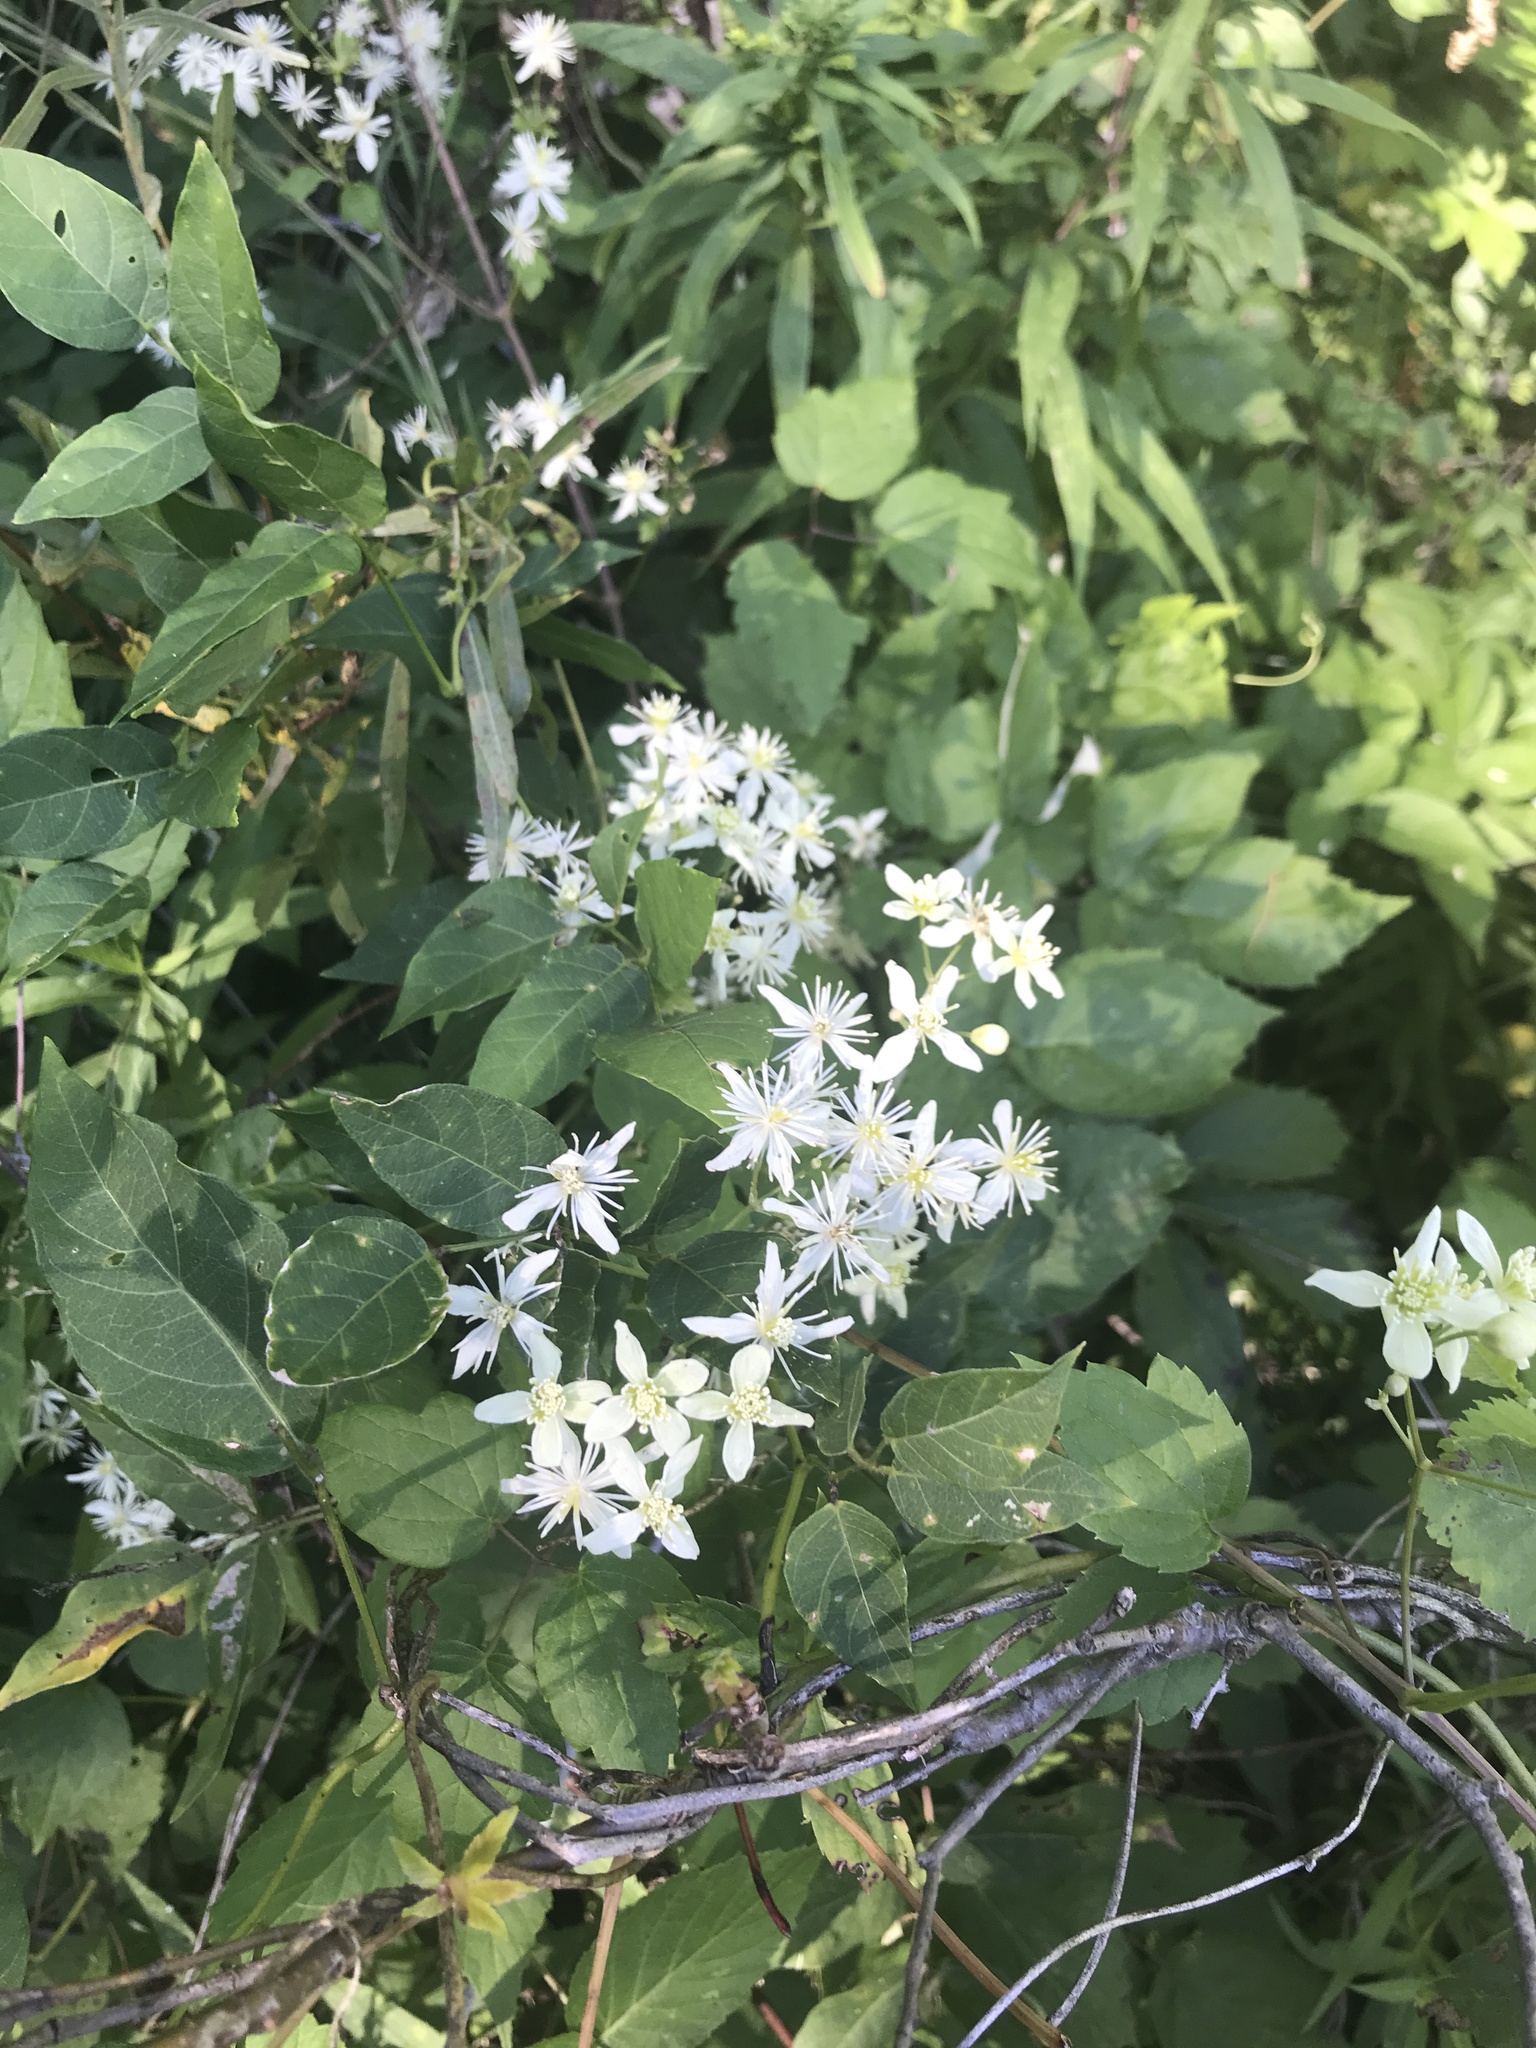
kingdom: Plantae
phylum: Tracheophyta
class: Magnoliopsida
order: Ranunculales
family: Ranunculaceae
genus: Clematis
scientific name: Clematis virginiana
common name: Virgin's-bower
